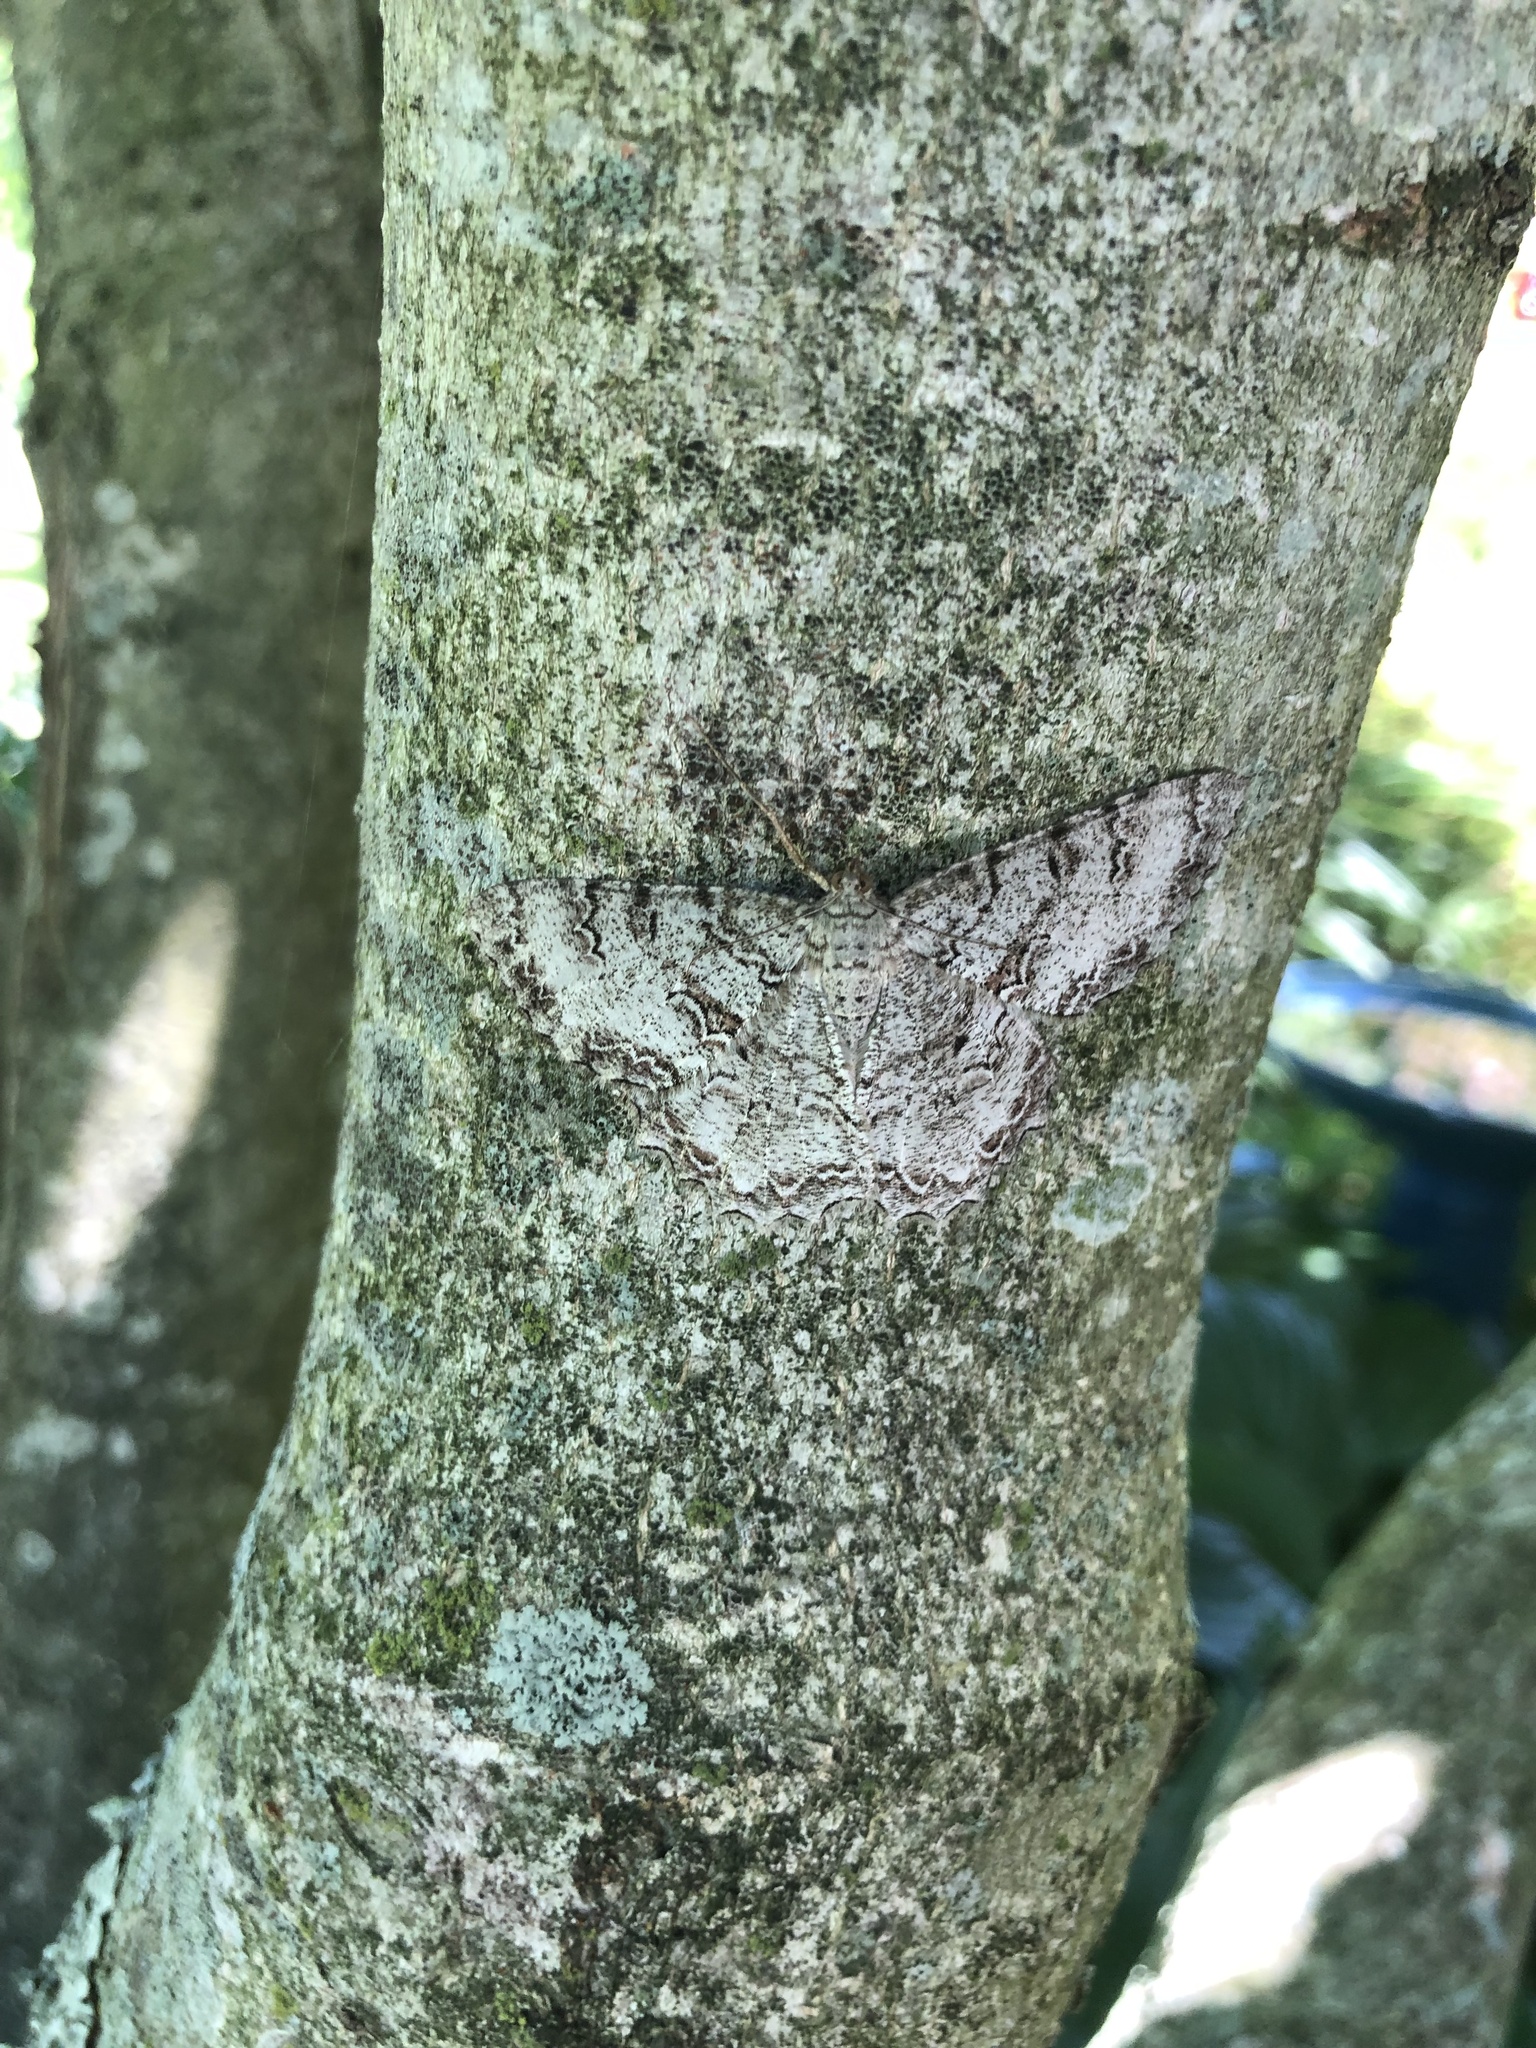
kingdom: Animalia
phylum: Arthropoda
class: Insecta
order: Lepidoptera
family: Geometridae
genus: Epimecis
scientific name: Epimecis hortaria
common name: Tulip-tree beauty
